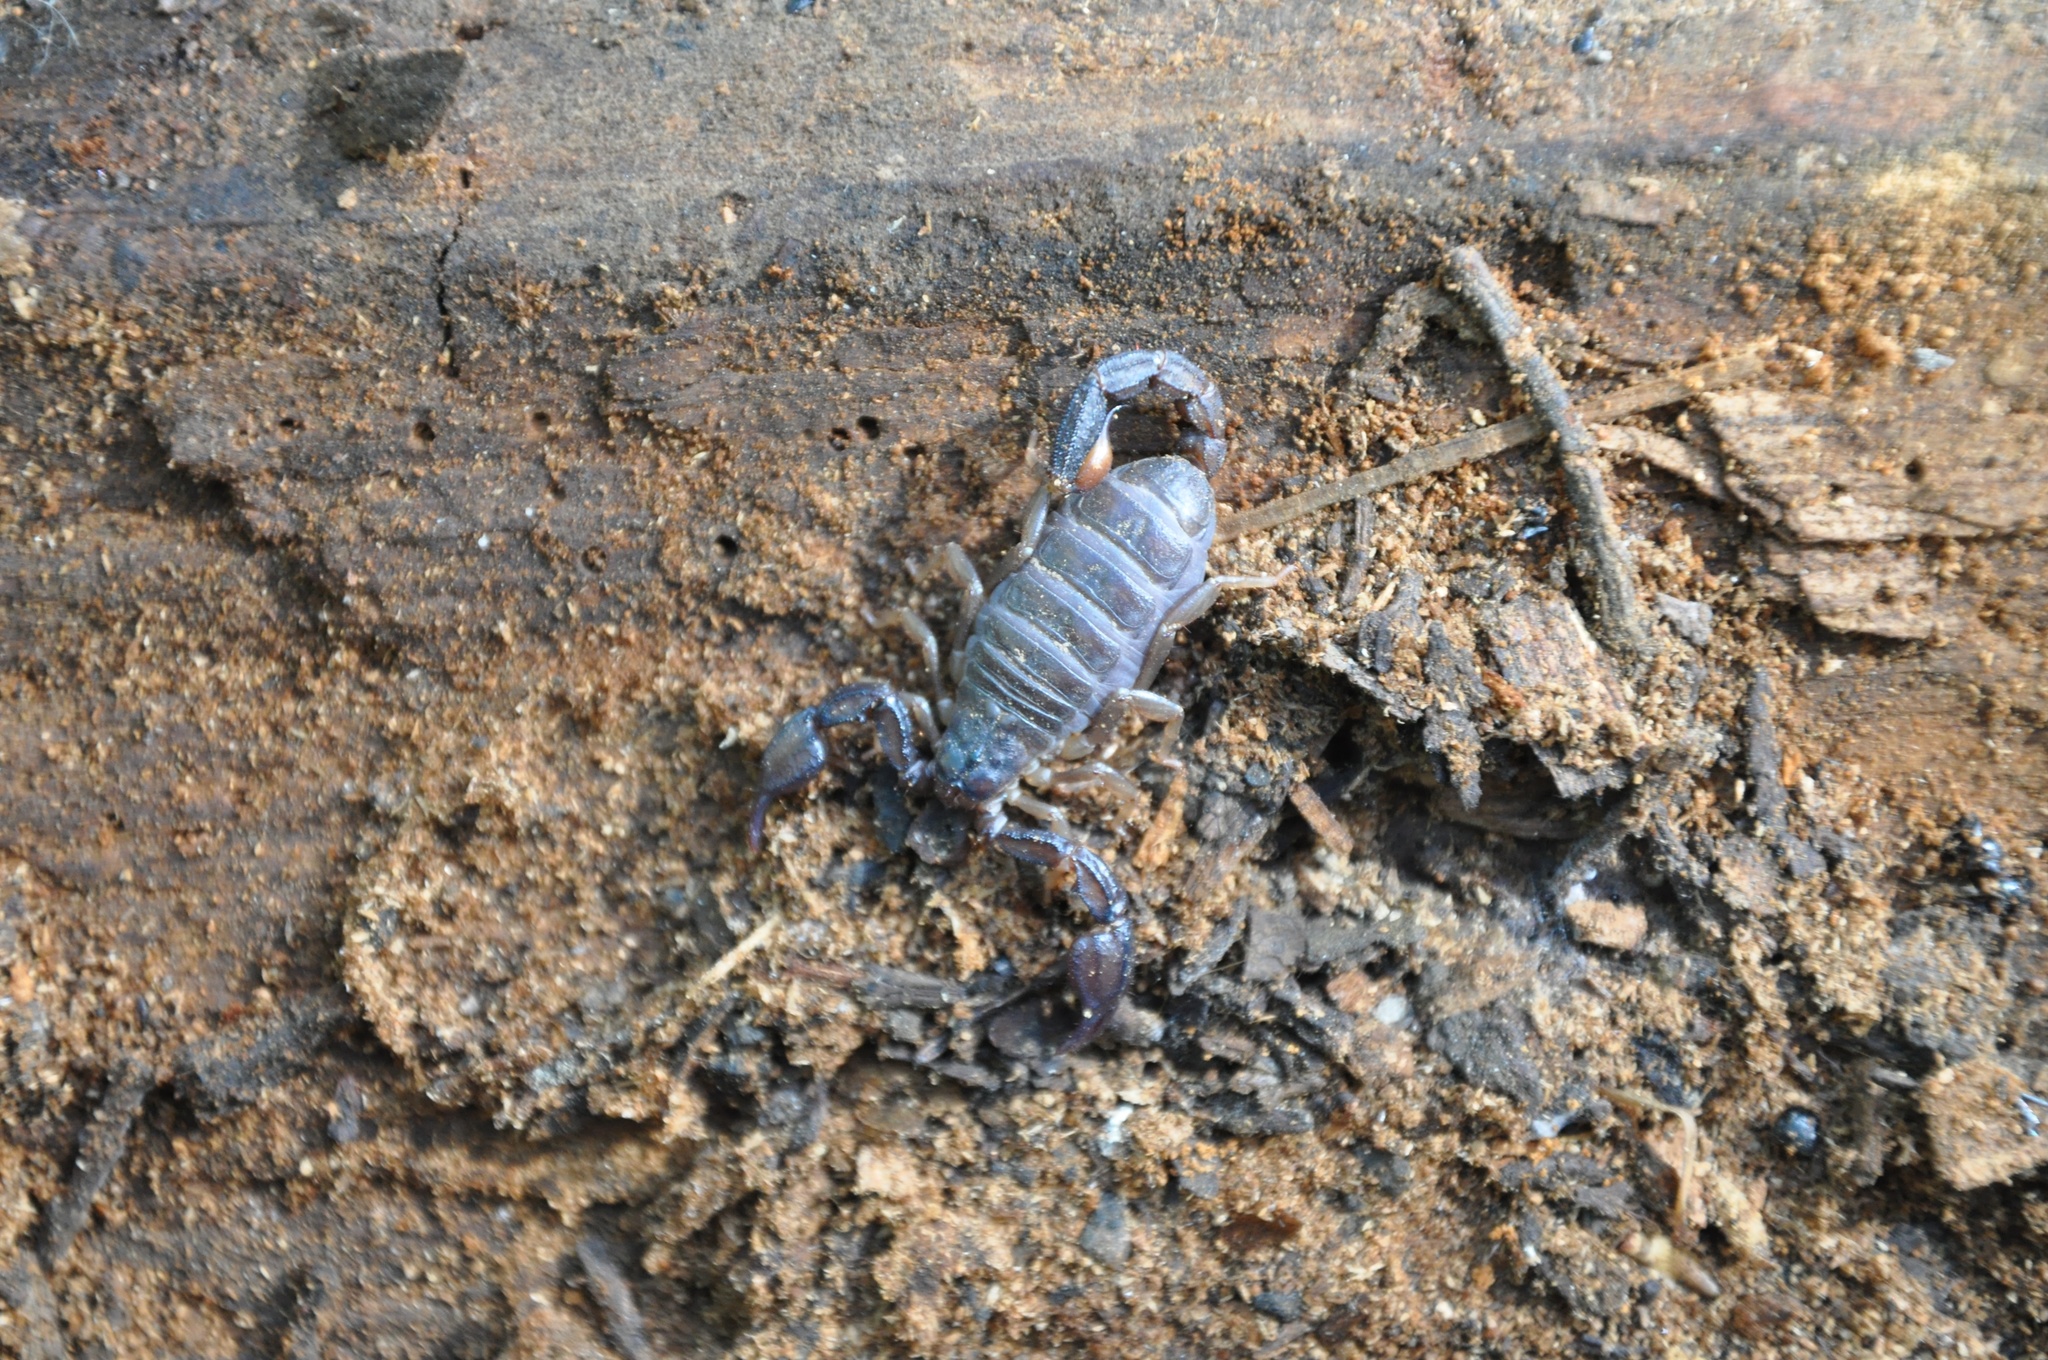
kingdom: Animalia
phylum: Arthropoda
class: Arachnida
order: Scorpiones
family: Chactidae
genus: Uroctonus
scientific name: Uroctonus mordax
